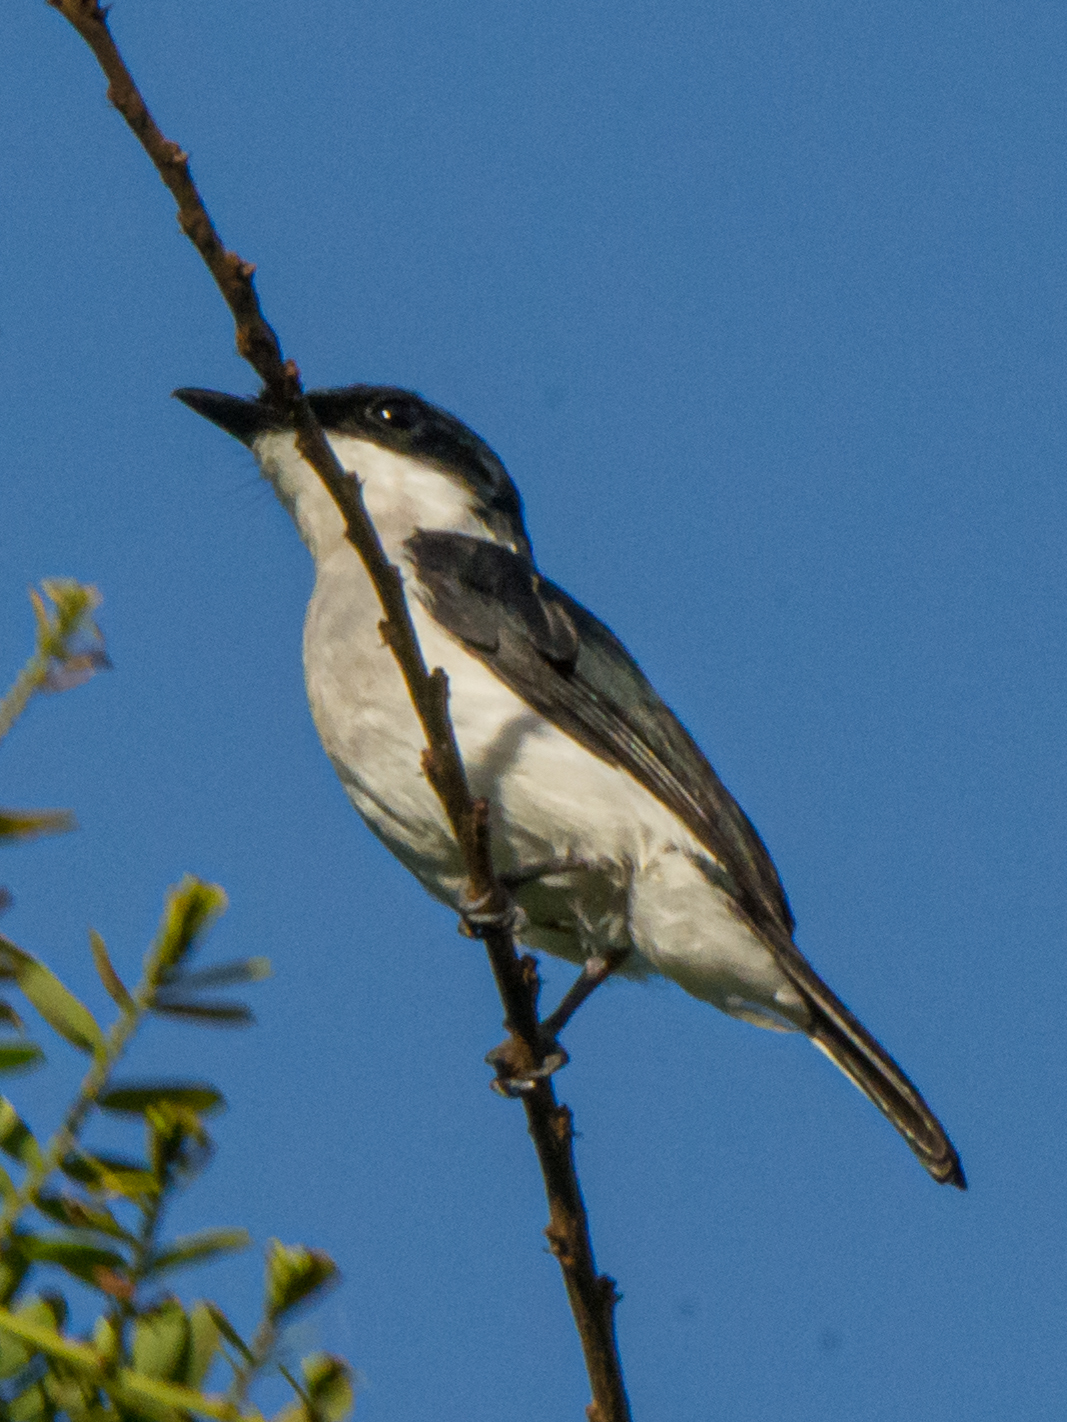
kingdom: Animalia
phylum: Chordata
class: Aves
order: Passeriformes
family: Tephrodornithidae
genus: Hemipus
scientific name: Hemipus hirundinaceus
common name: Black-winged flycatcher-shrike
